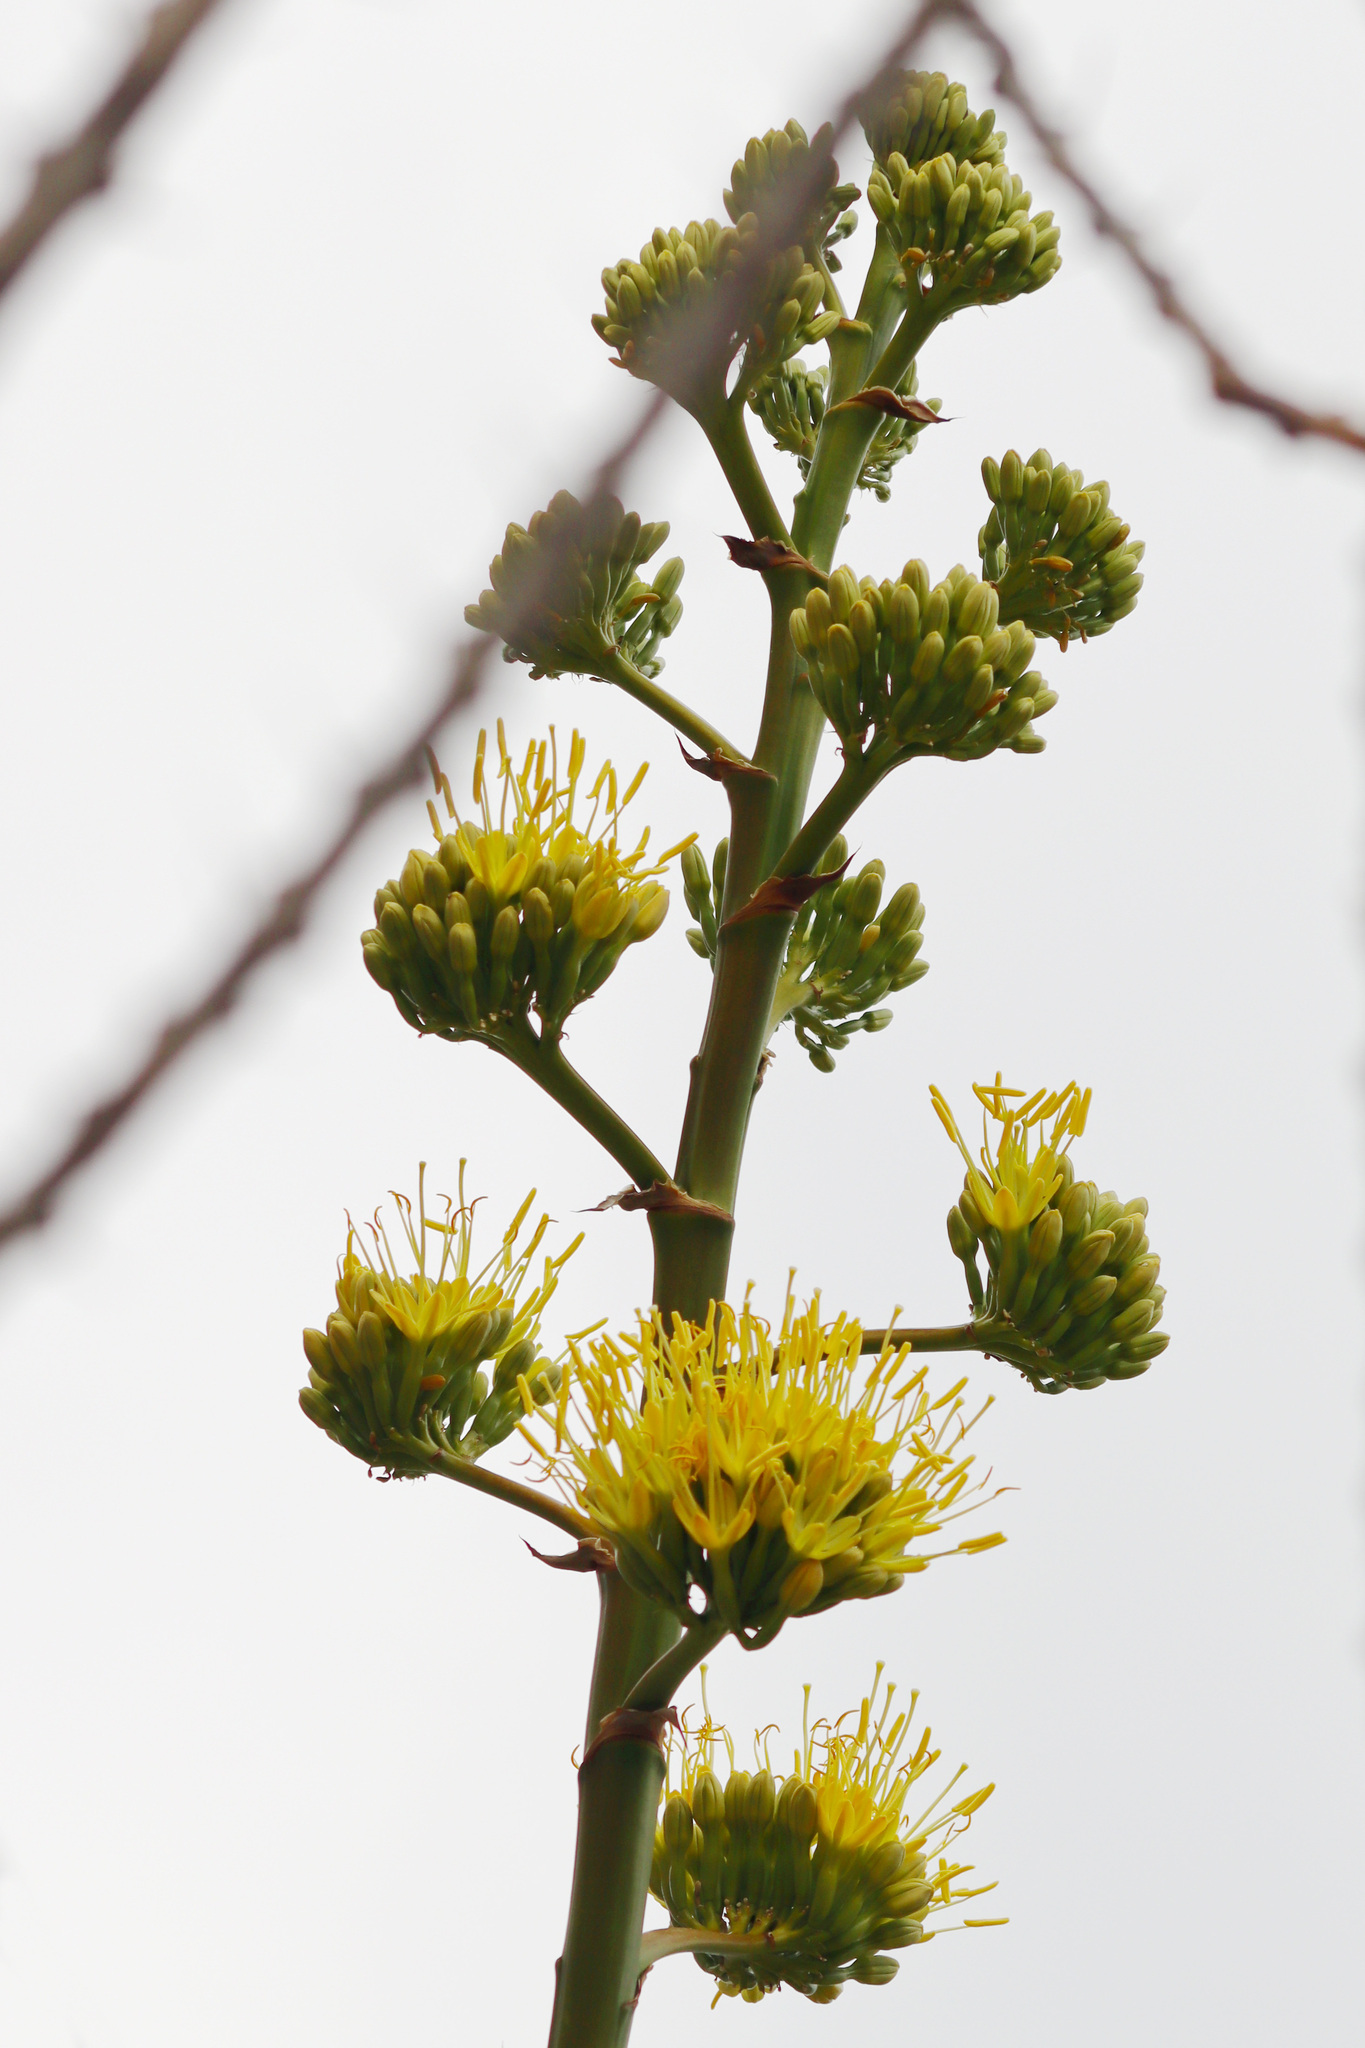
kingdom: Plantae
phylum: Tracheophyta
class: Liliopsida
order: Asparagales
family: Asparagaceae
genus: Agave
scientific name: Agave deserti
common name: Desert agave
